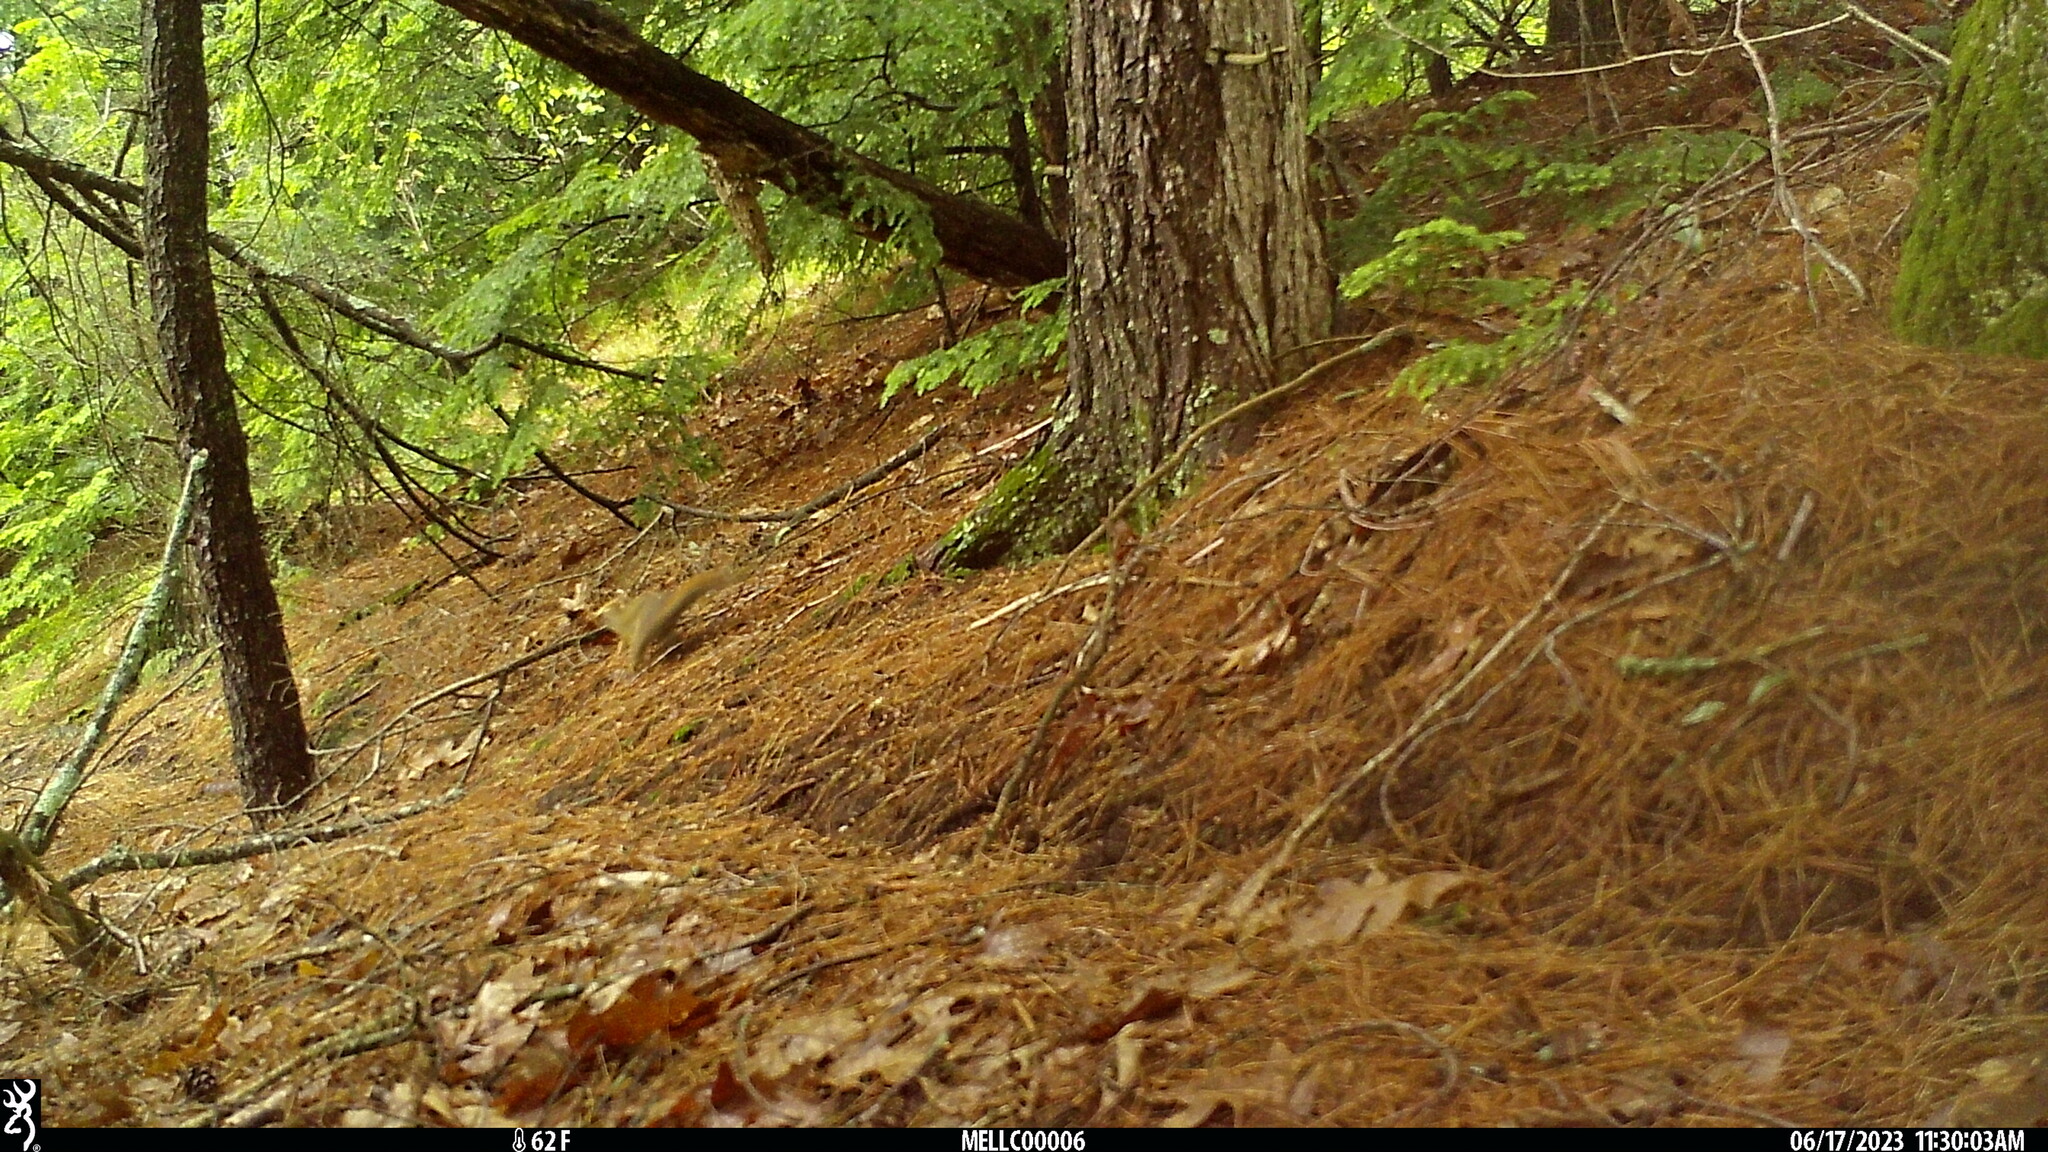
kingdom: Animalia
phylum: Chordata
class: Mammalia
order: Rodentia
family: Sciuridae
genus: Tamiasciurus
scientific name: Tamiasciurus hudsonicus
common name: Red squirrel
